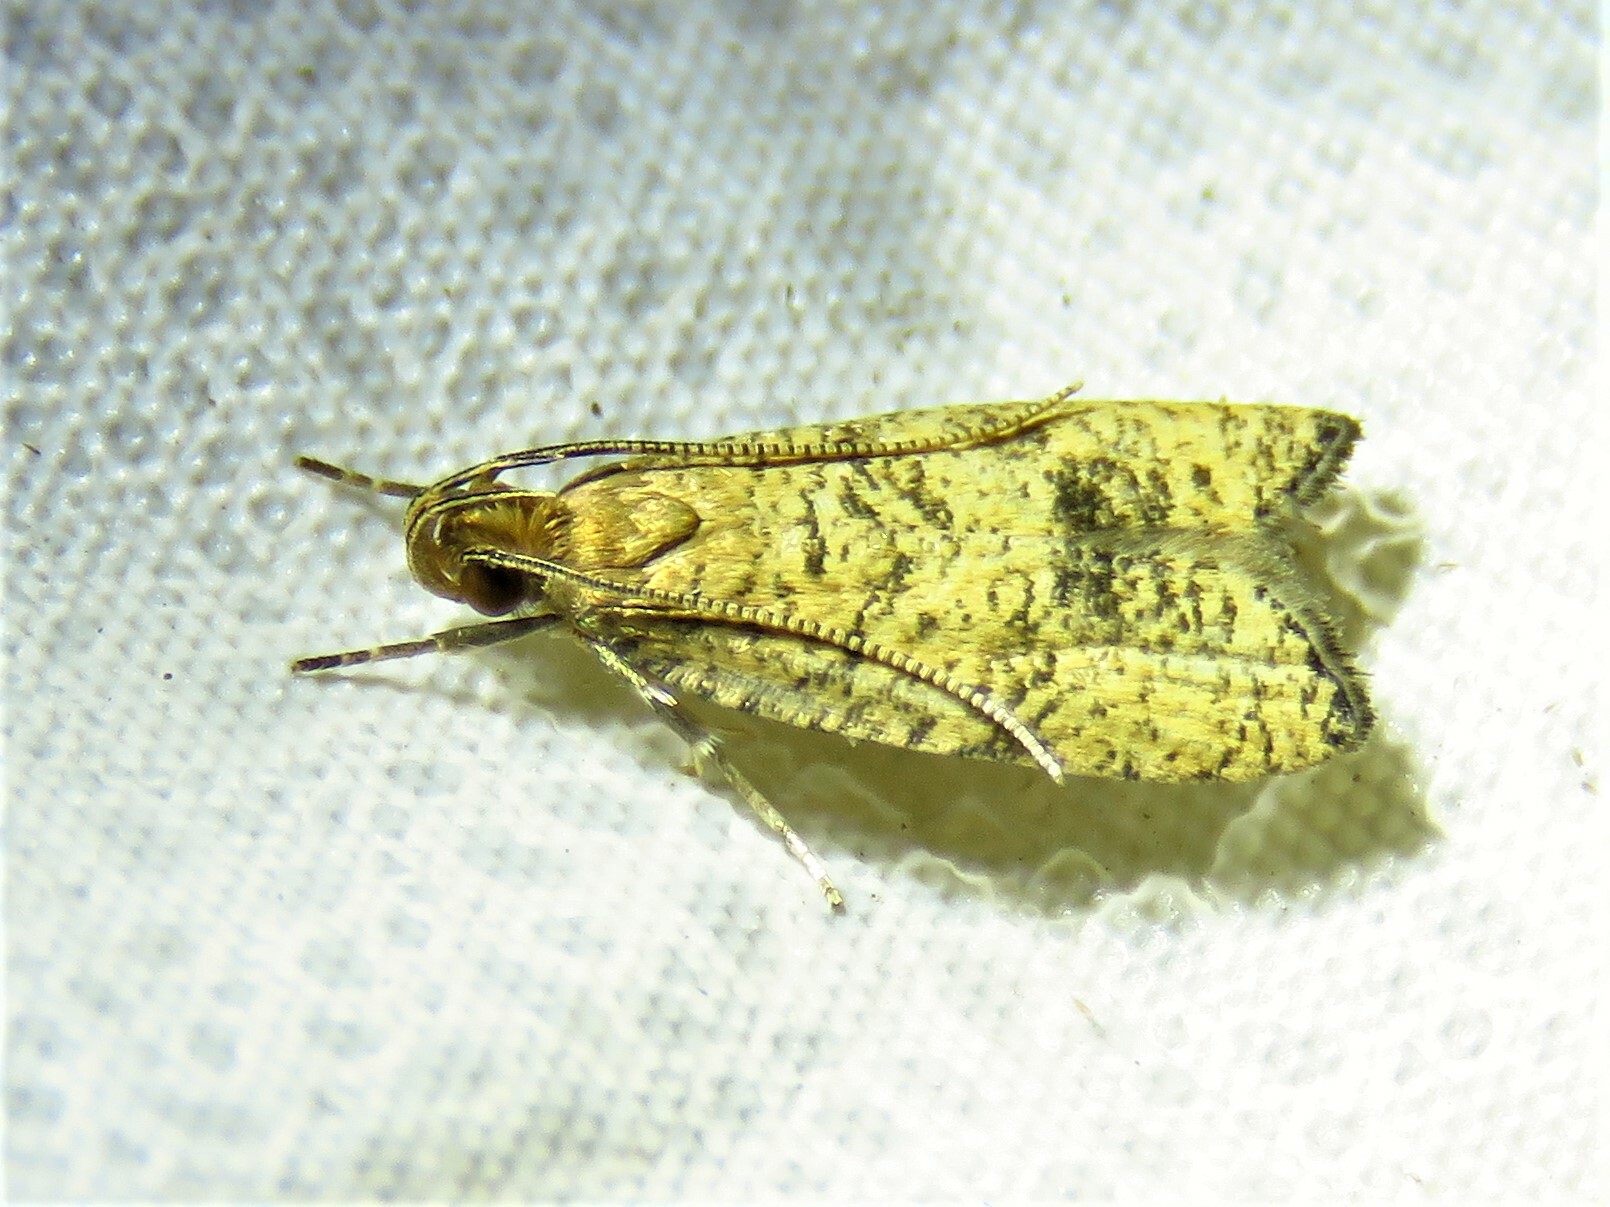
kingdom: Animalia
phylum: Arthropoda
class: Insecta
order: Lepidoptera
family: Depressariidae
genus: Psilocorsis
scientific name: Psilocorsis quercicella
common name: Oak leaftier moth
